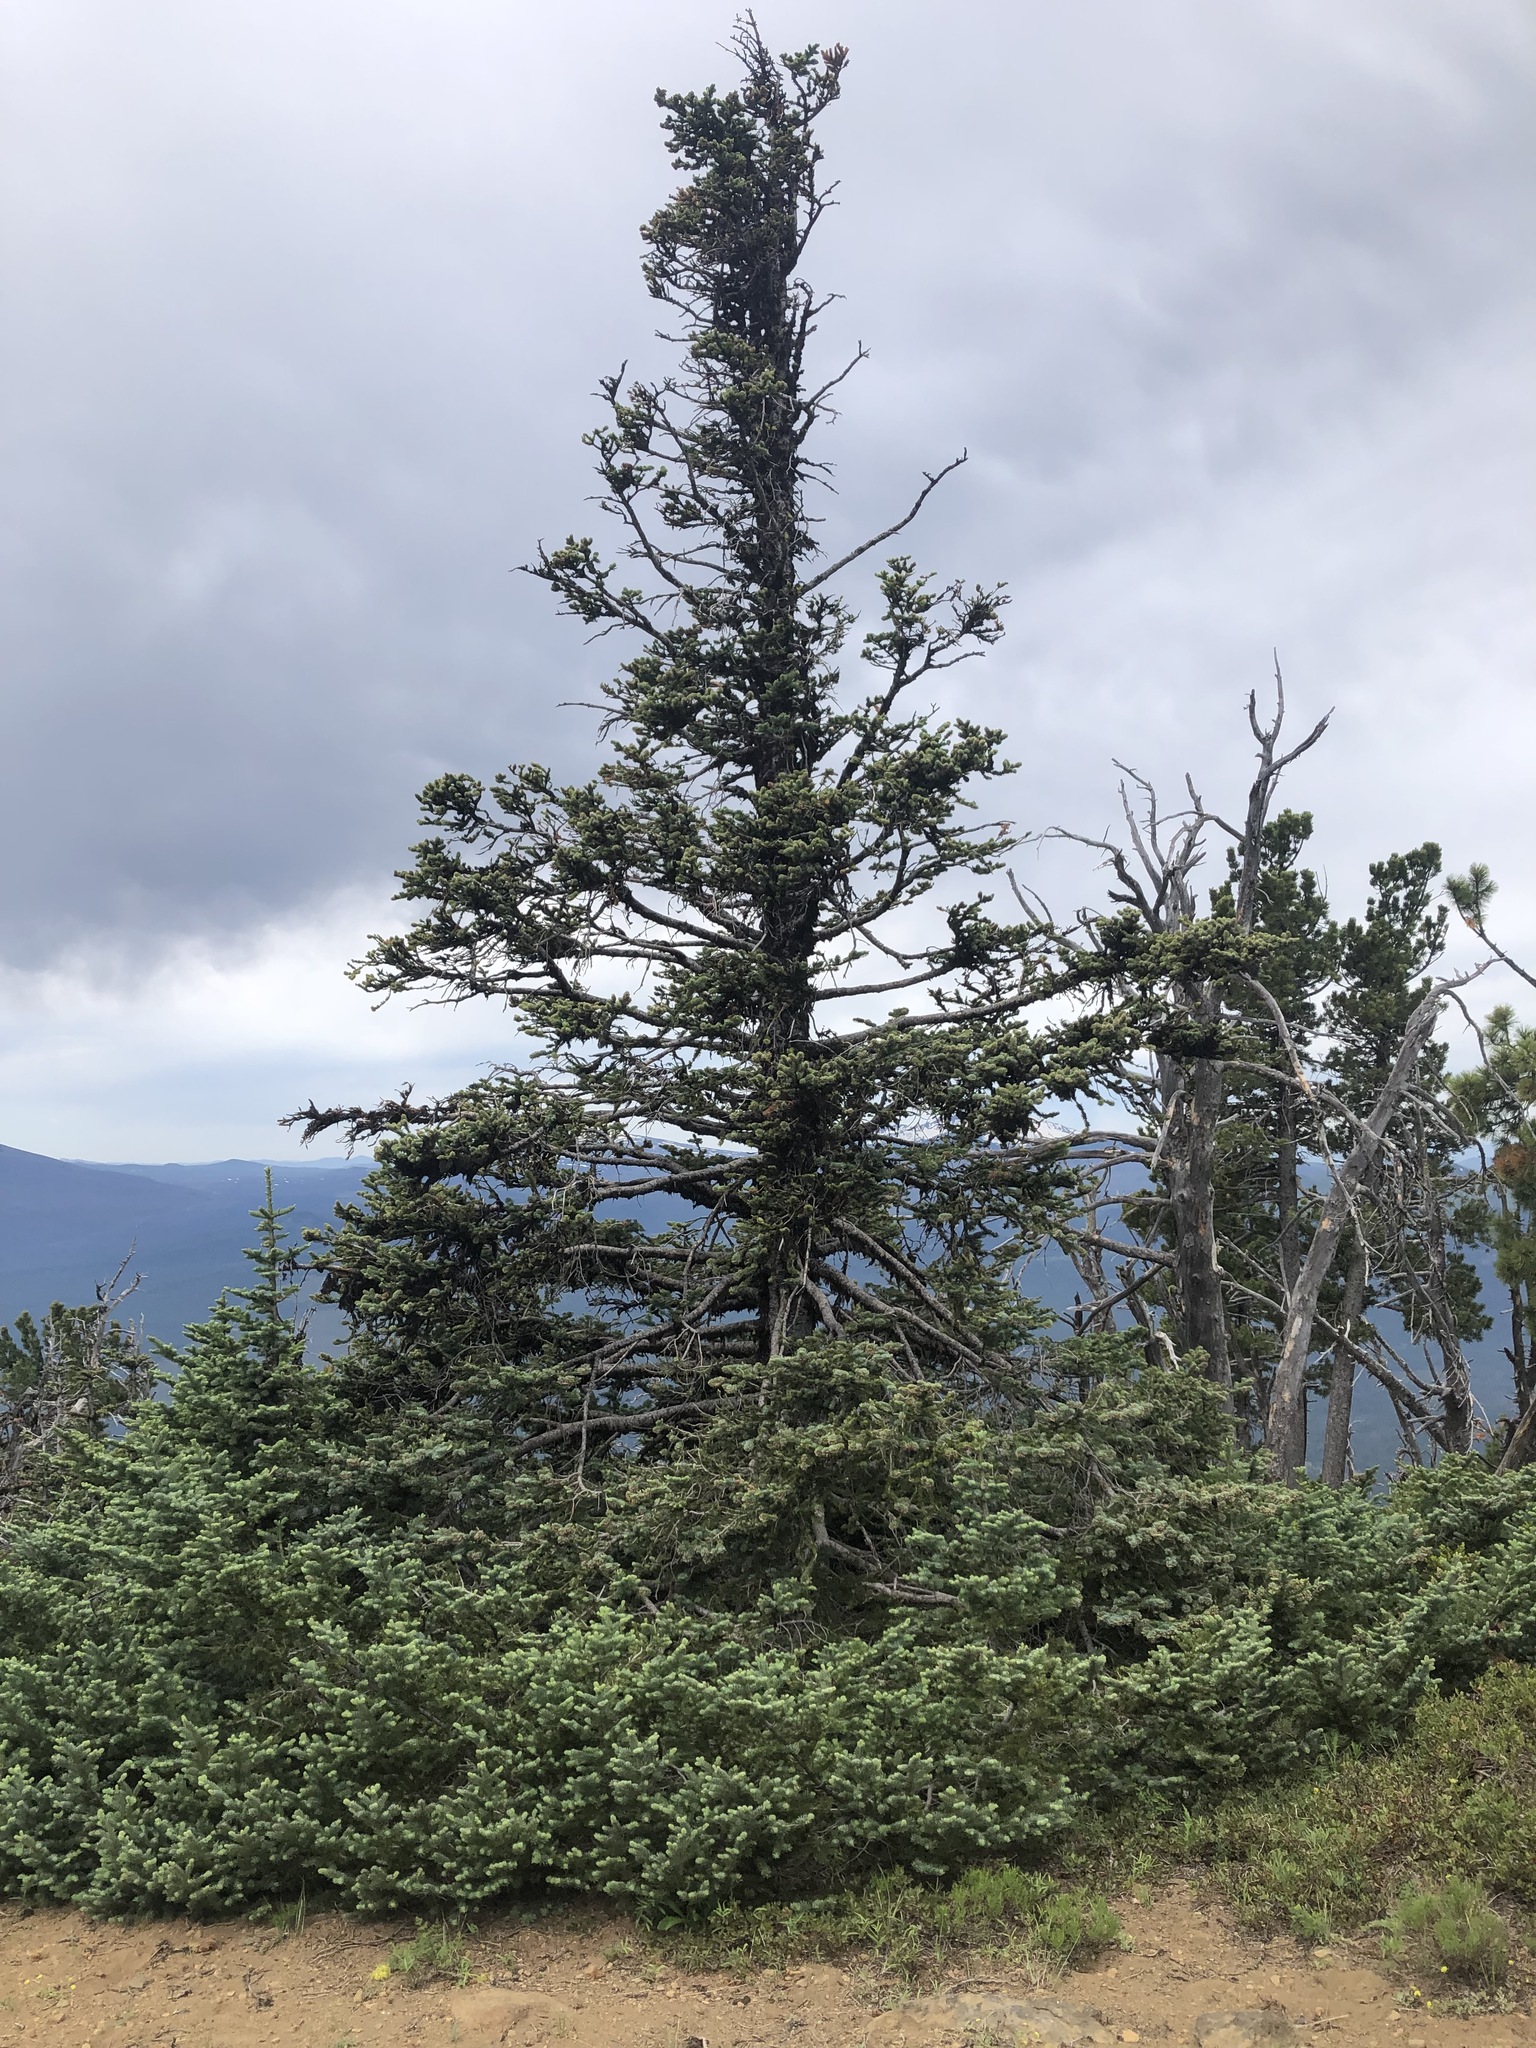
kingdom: Plantae
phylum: Tracheophyta
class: Pinopsida
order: Pinales
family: Pinaceae
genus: Abies
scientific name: Abies lasiocarpa
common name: Subalpine fir
